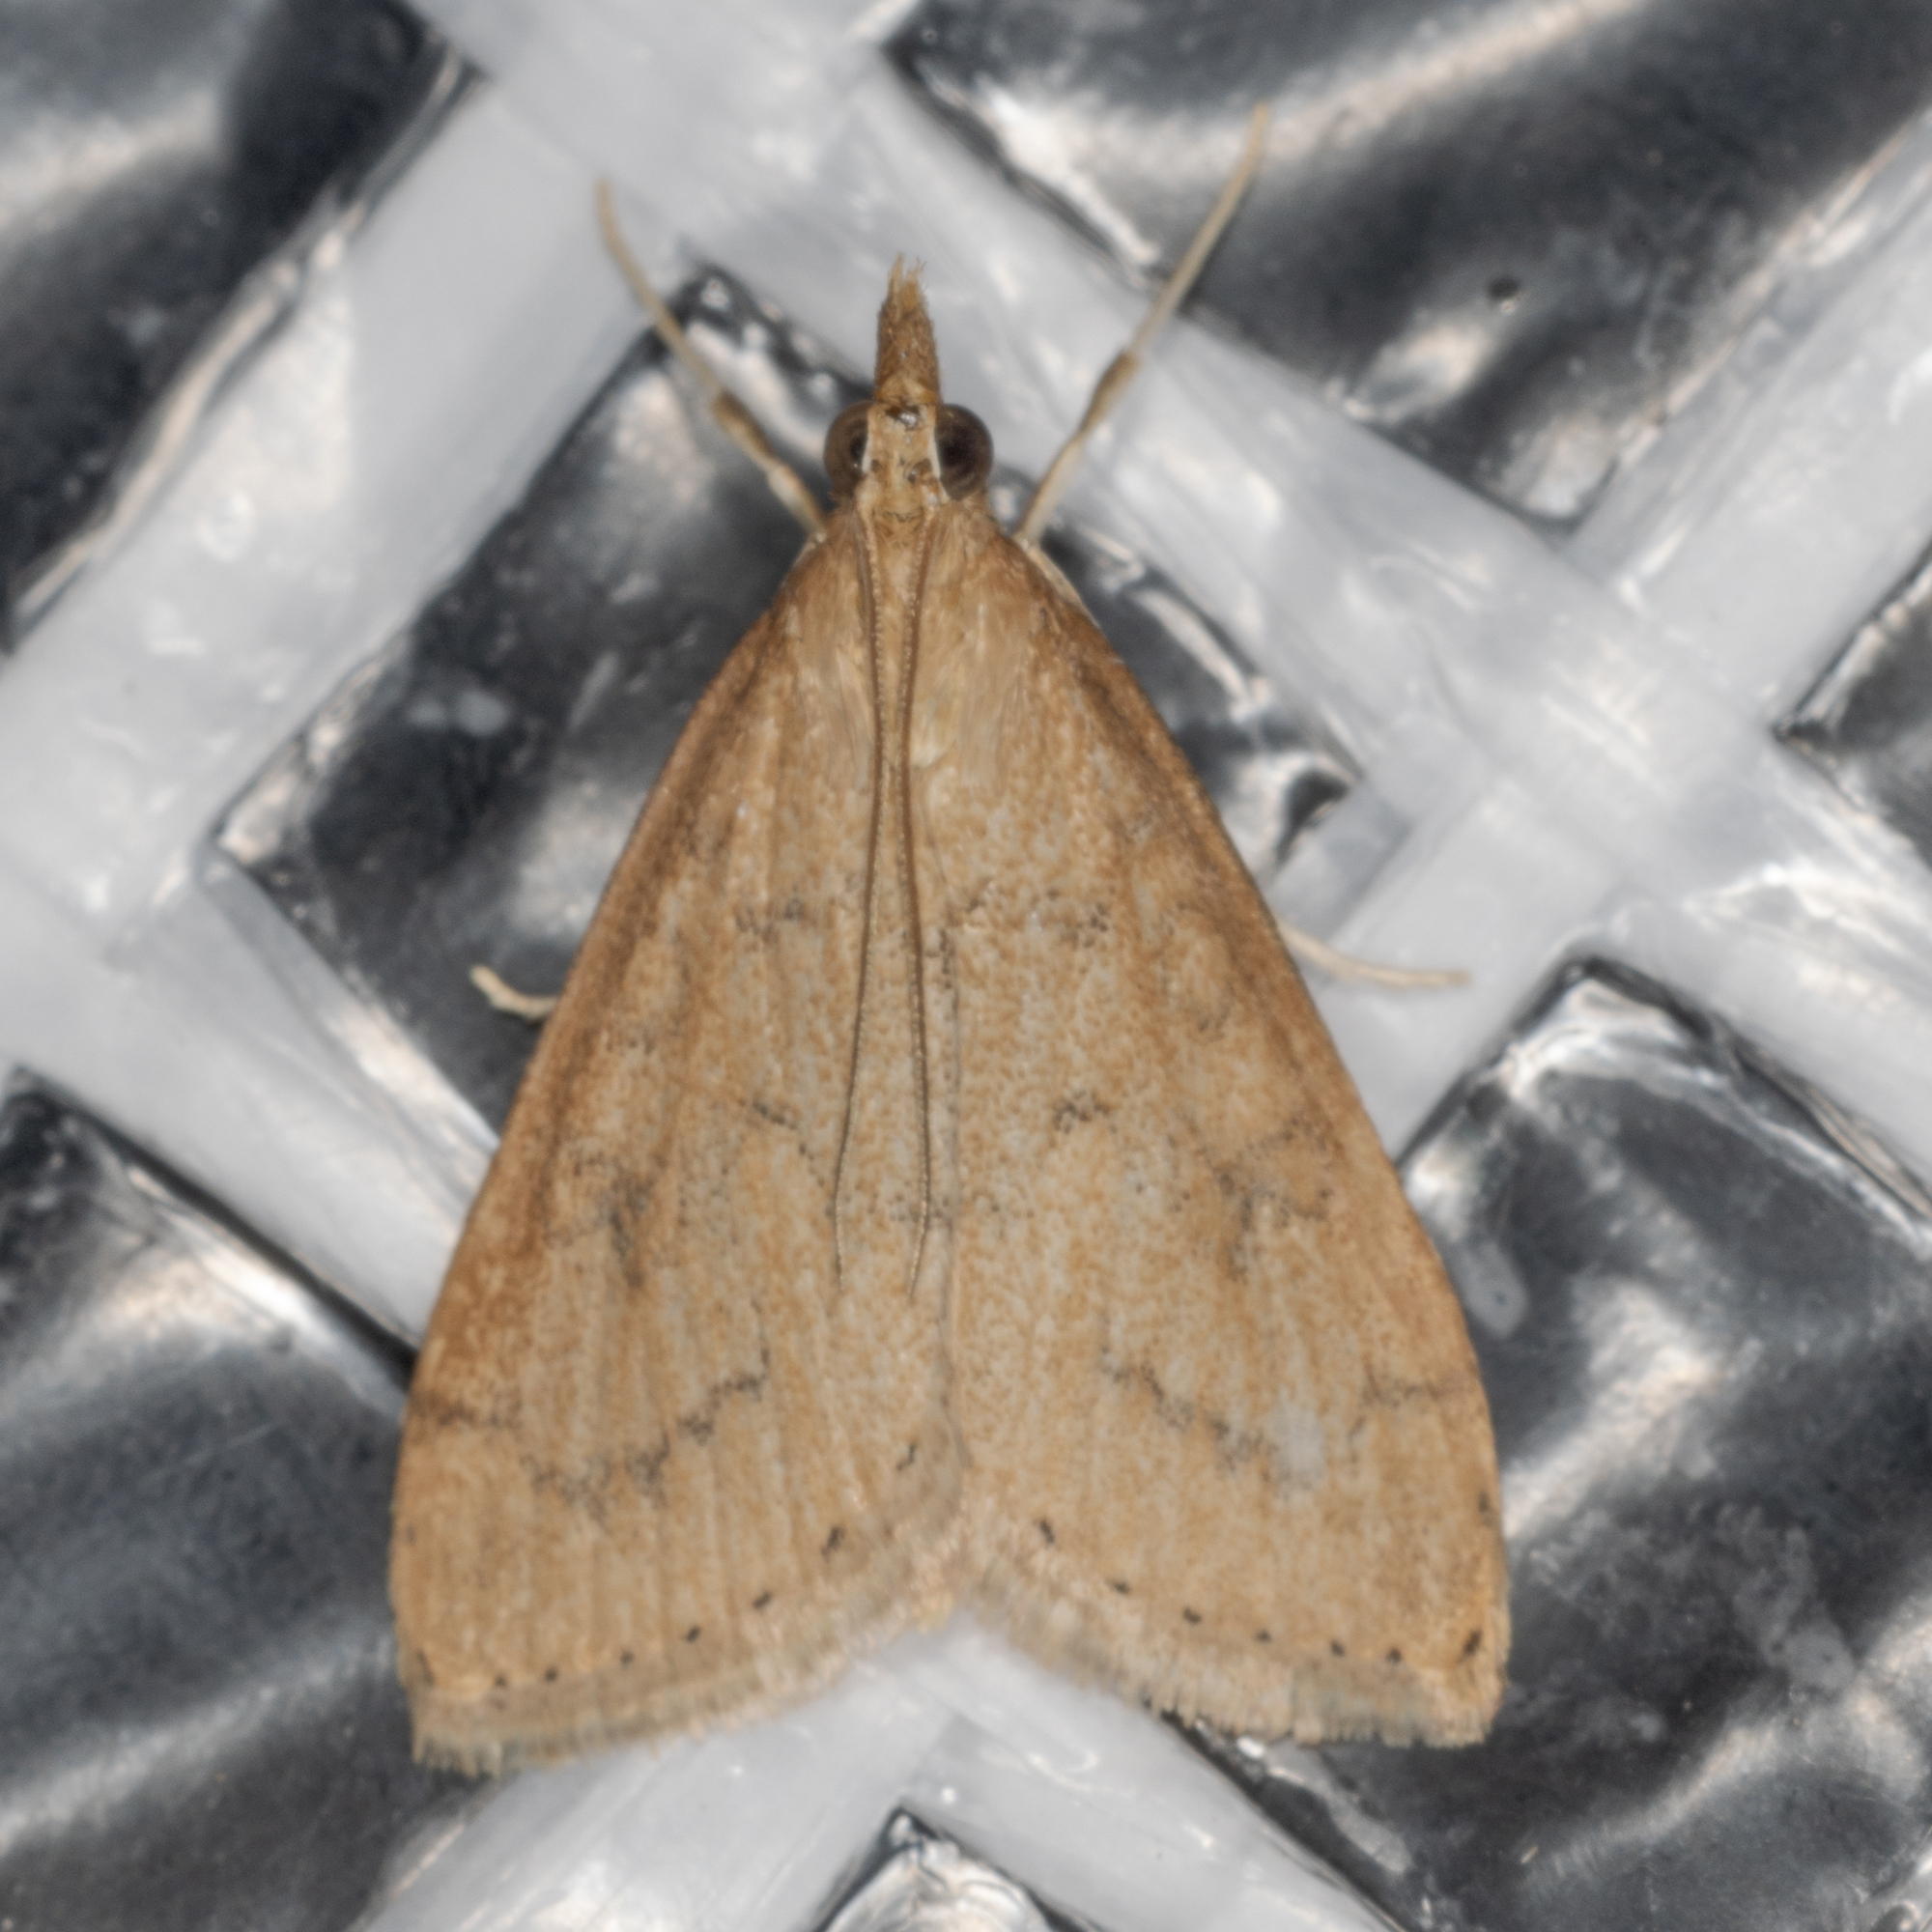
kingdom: Animalia
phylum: Arthropoda
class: Insecta
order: Lepidoptera
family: Crambidae
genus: Udea
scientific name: Udea rubigalis
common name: Celery leaftier moth
